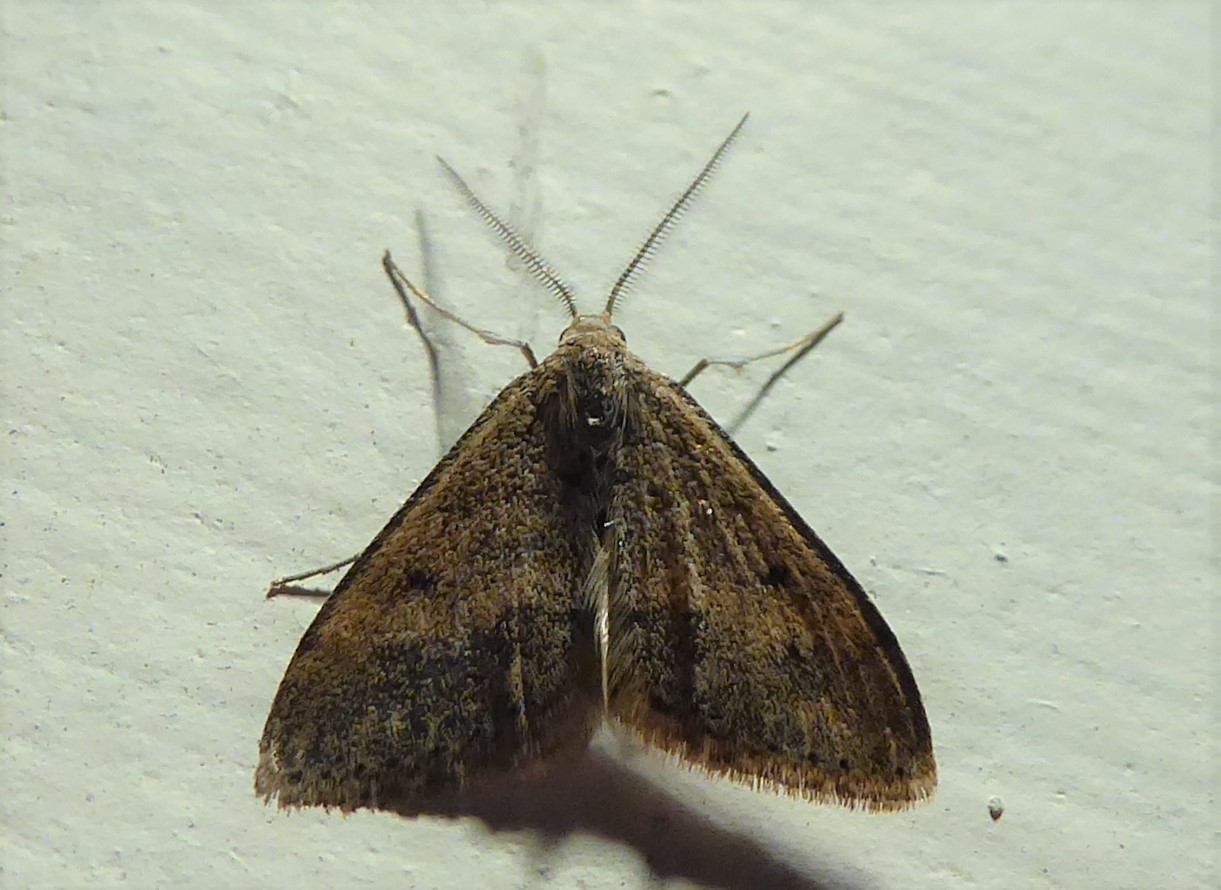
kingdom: Animalia
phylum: Arthropoda
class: Insecta
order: Lepidoptera
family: Geometridae
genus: Scopula
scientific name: Scopula rubraria
